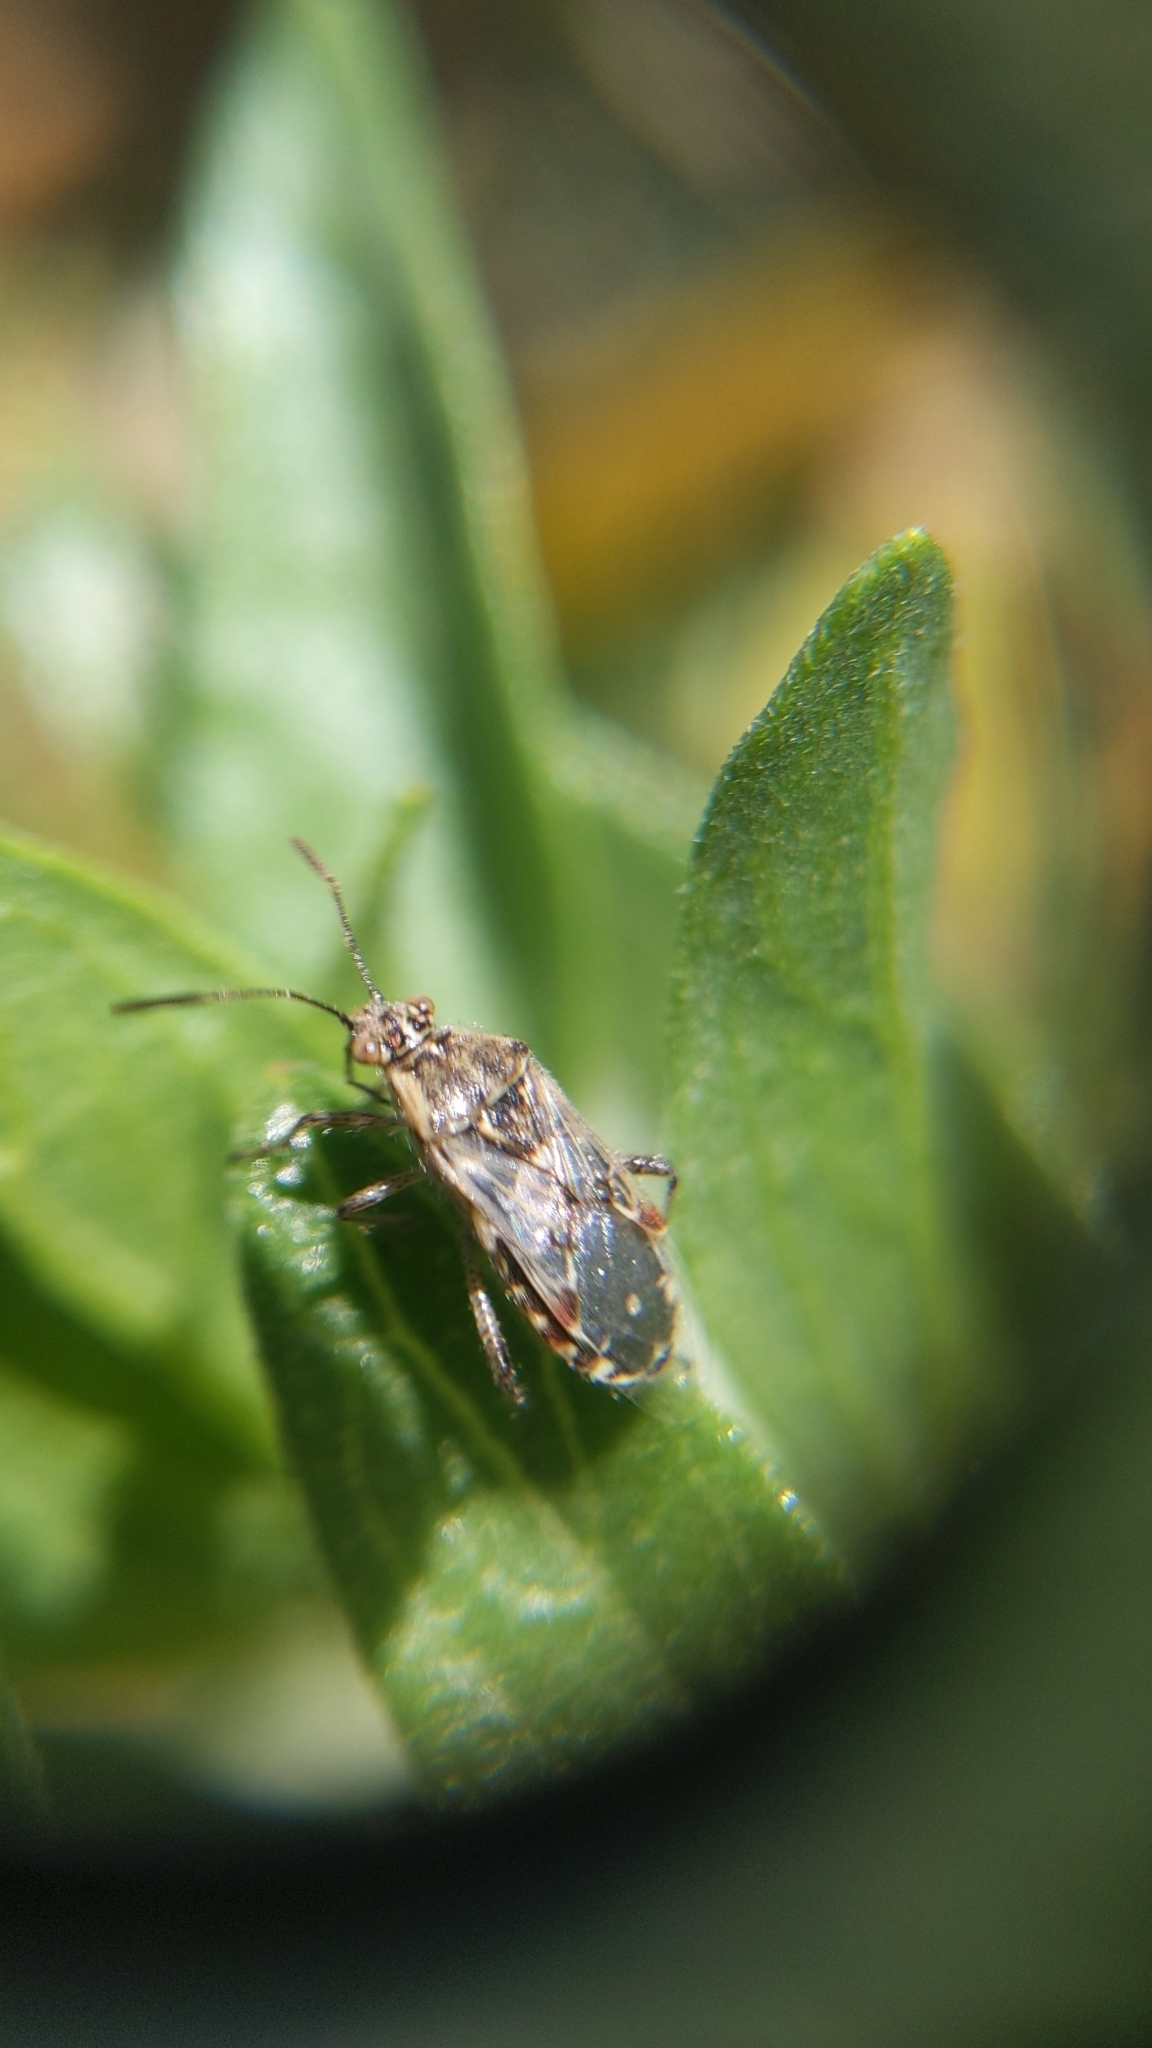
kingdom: Animalia
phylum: Arthropoda
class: Insecta
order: Hemiptera
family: Rhopalidae
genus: Liorhyssus
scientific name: Liorhyssus hyalinus
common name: Scentless plant bug
